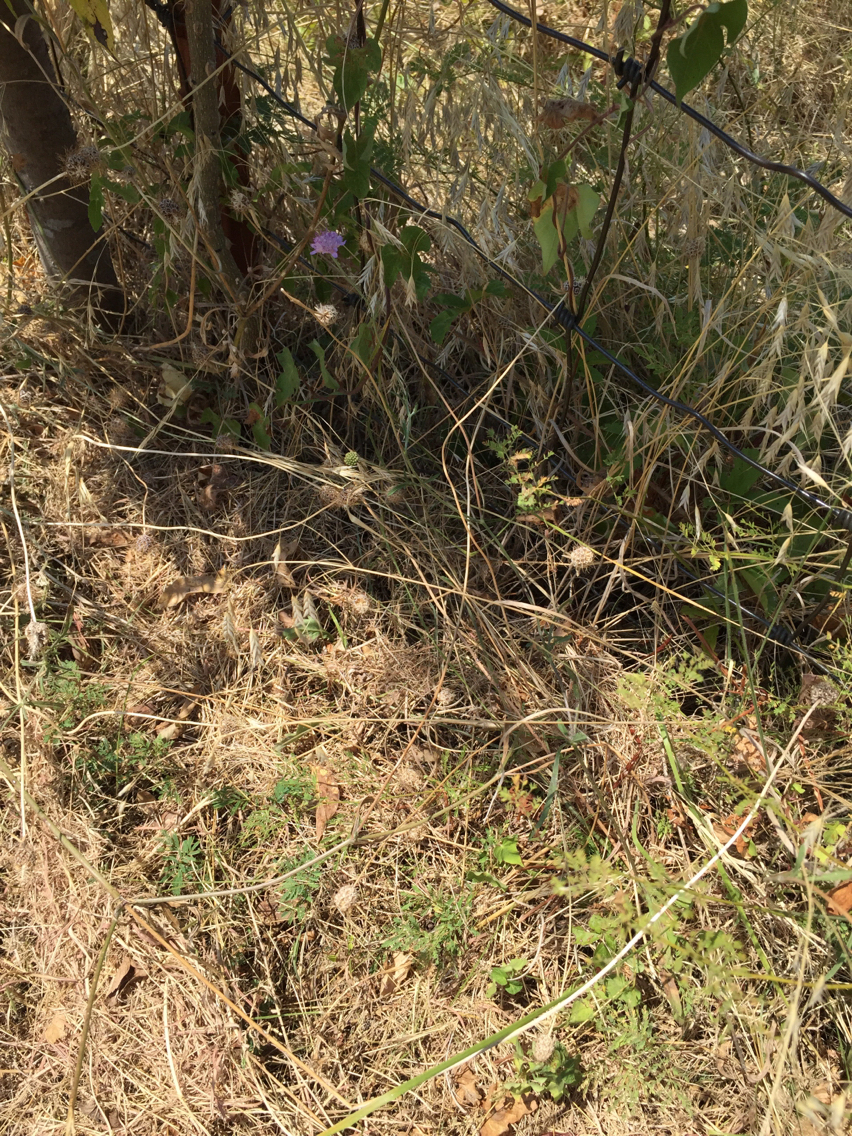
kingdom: Plantae
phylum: Tracheophyta
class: Magnoliopsida
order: Dipsacales
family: Caprifoliaceae
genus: Sixalix
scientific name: Sixalix atropurpurea
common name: Sweet scabious
